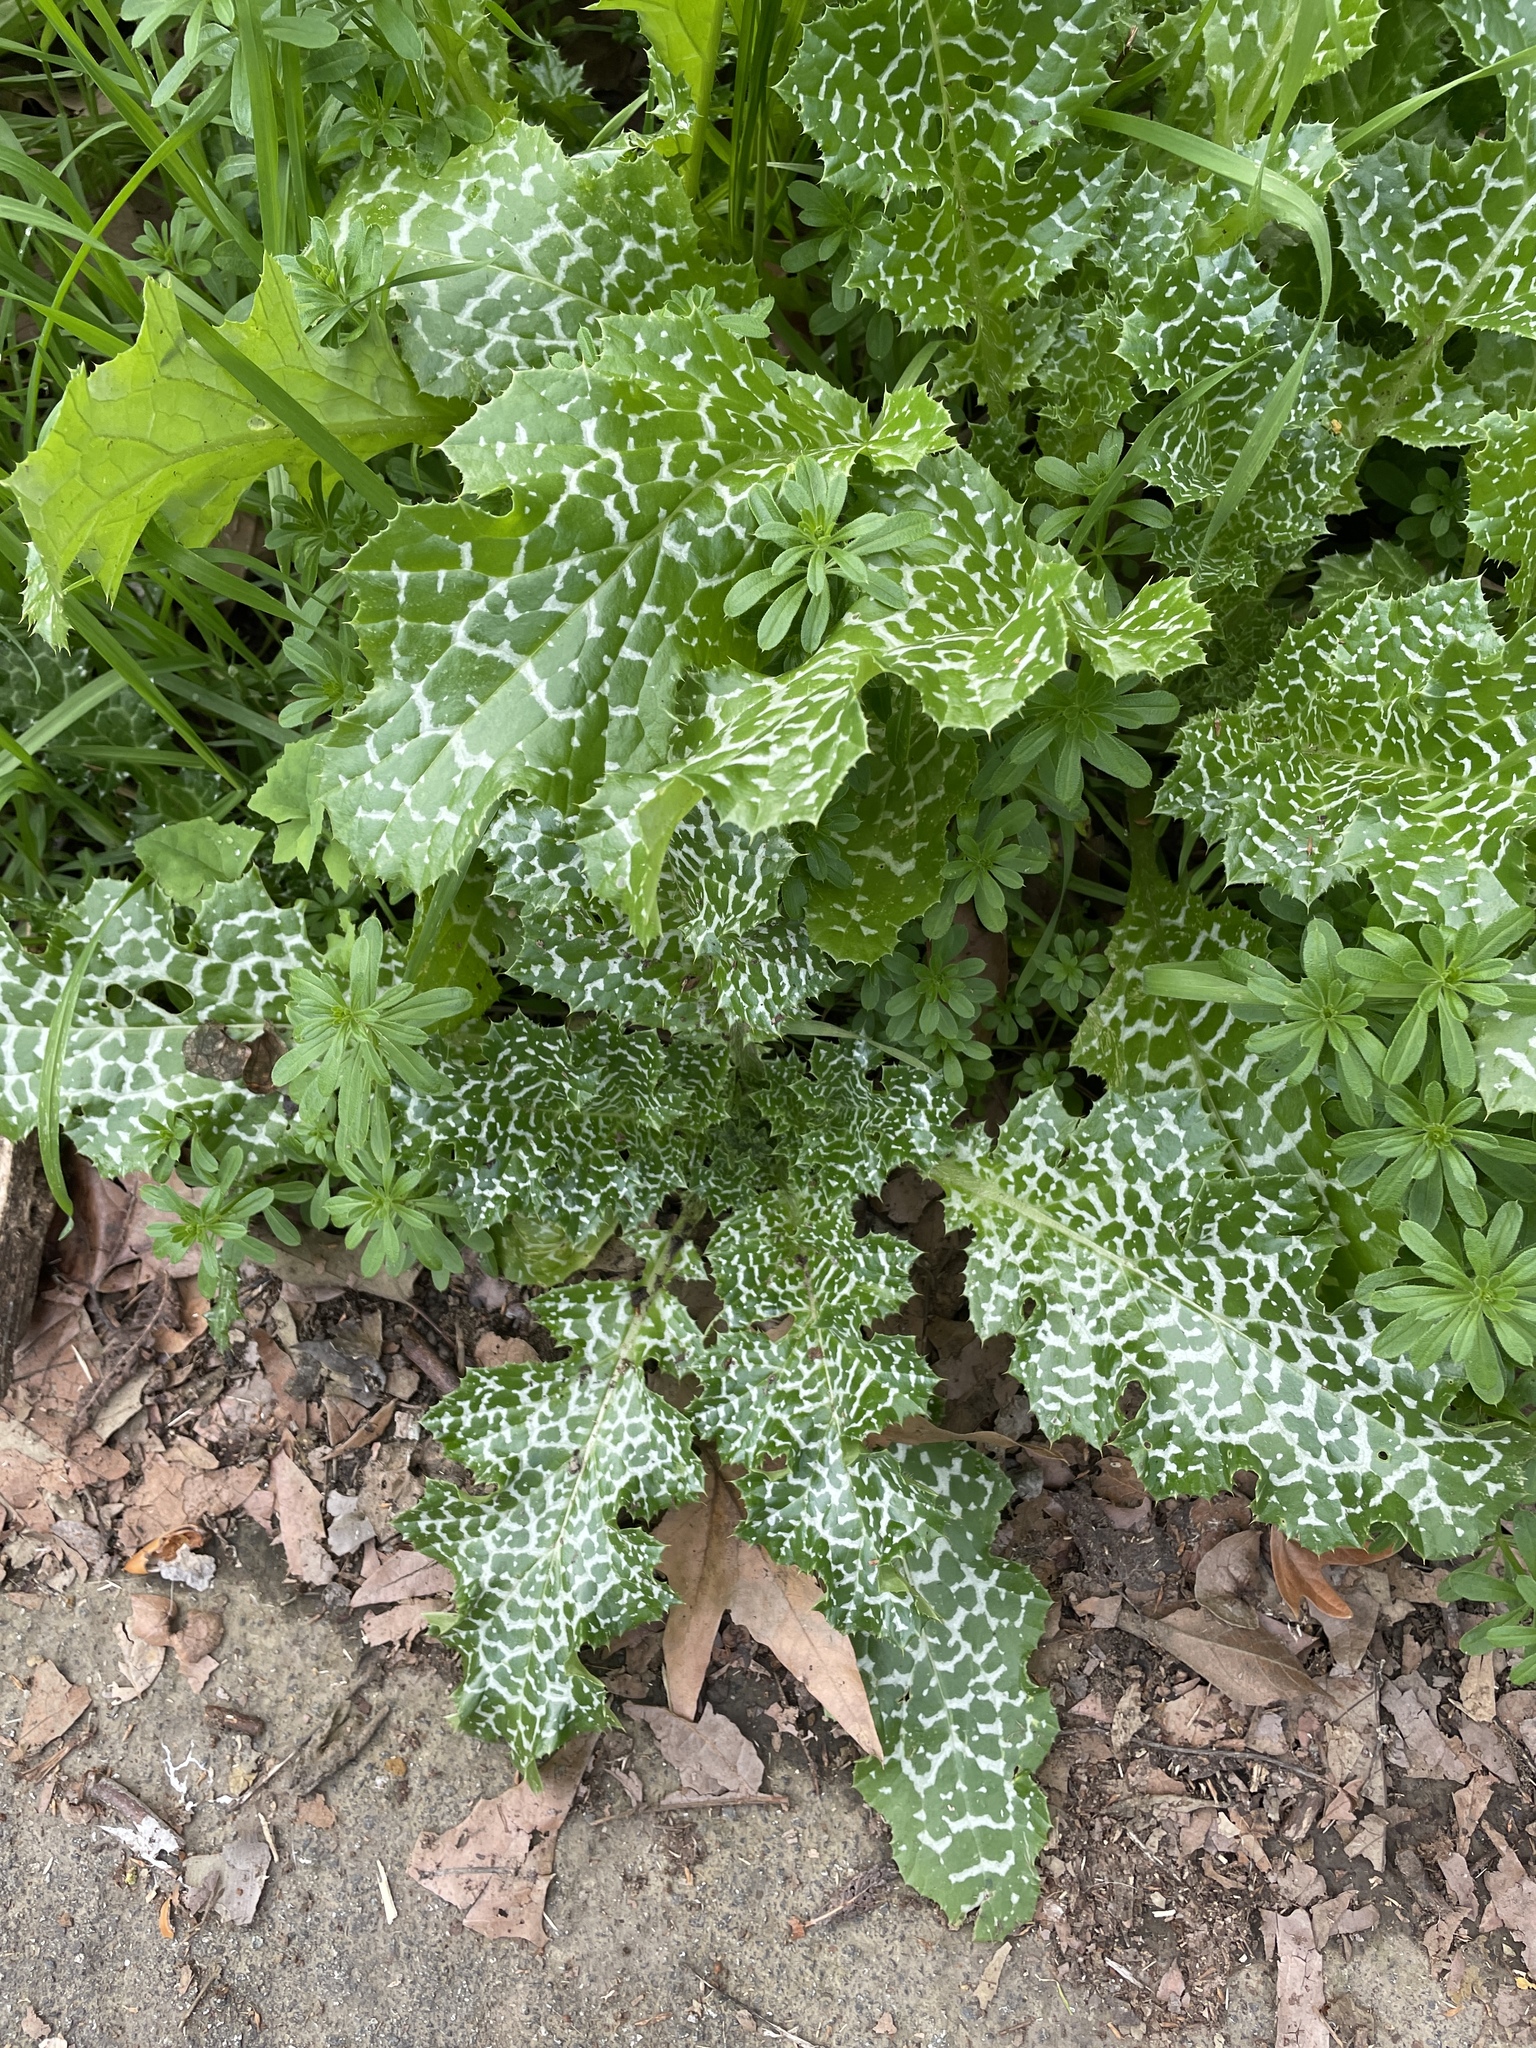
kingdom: Plantae
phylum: Tracheophyta
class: Magnoliopsida
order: Asterales
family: Asteraceae
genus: Silybum
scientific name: Silybum marianum
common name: Milk thistle
